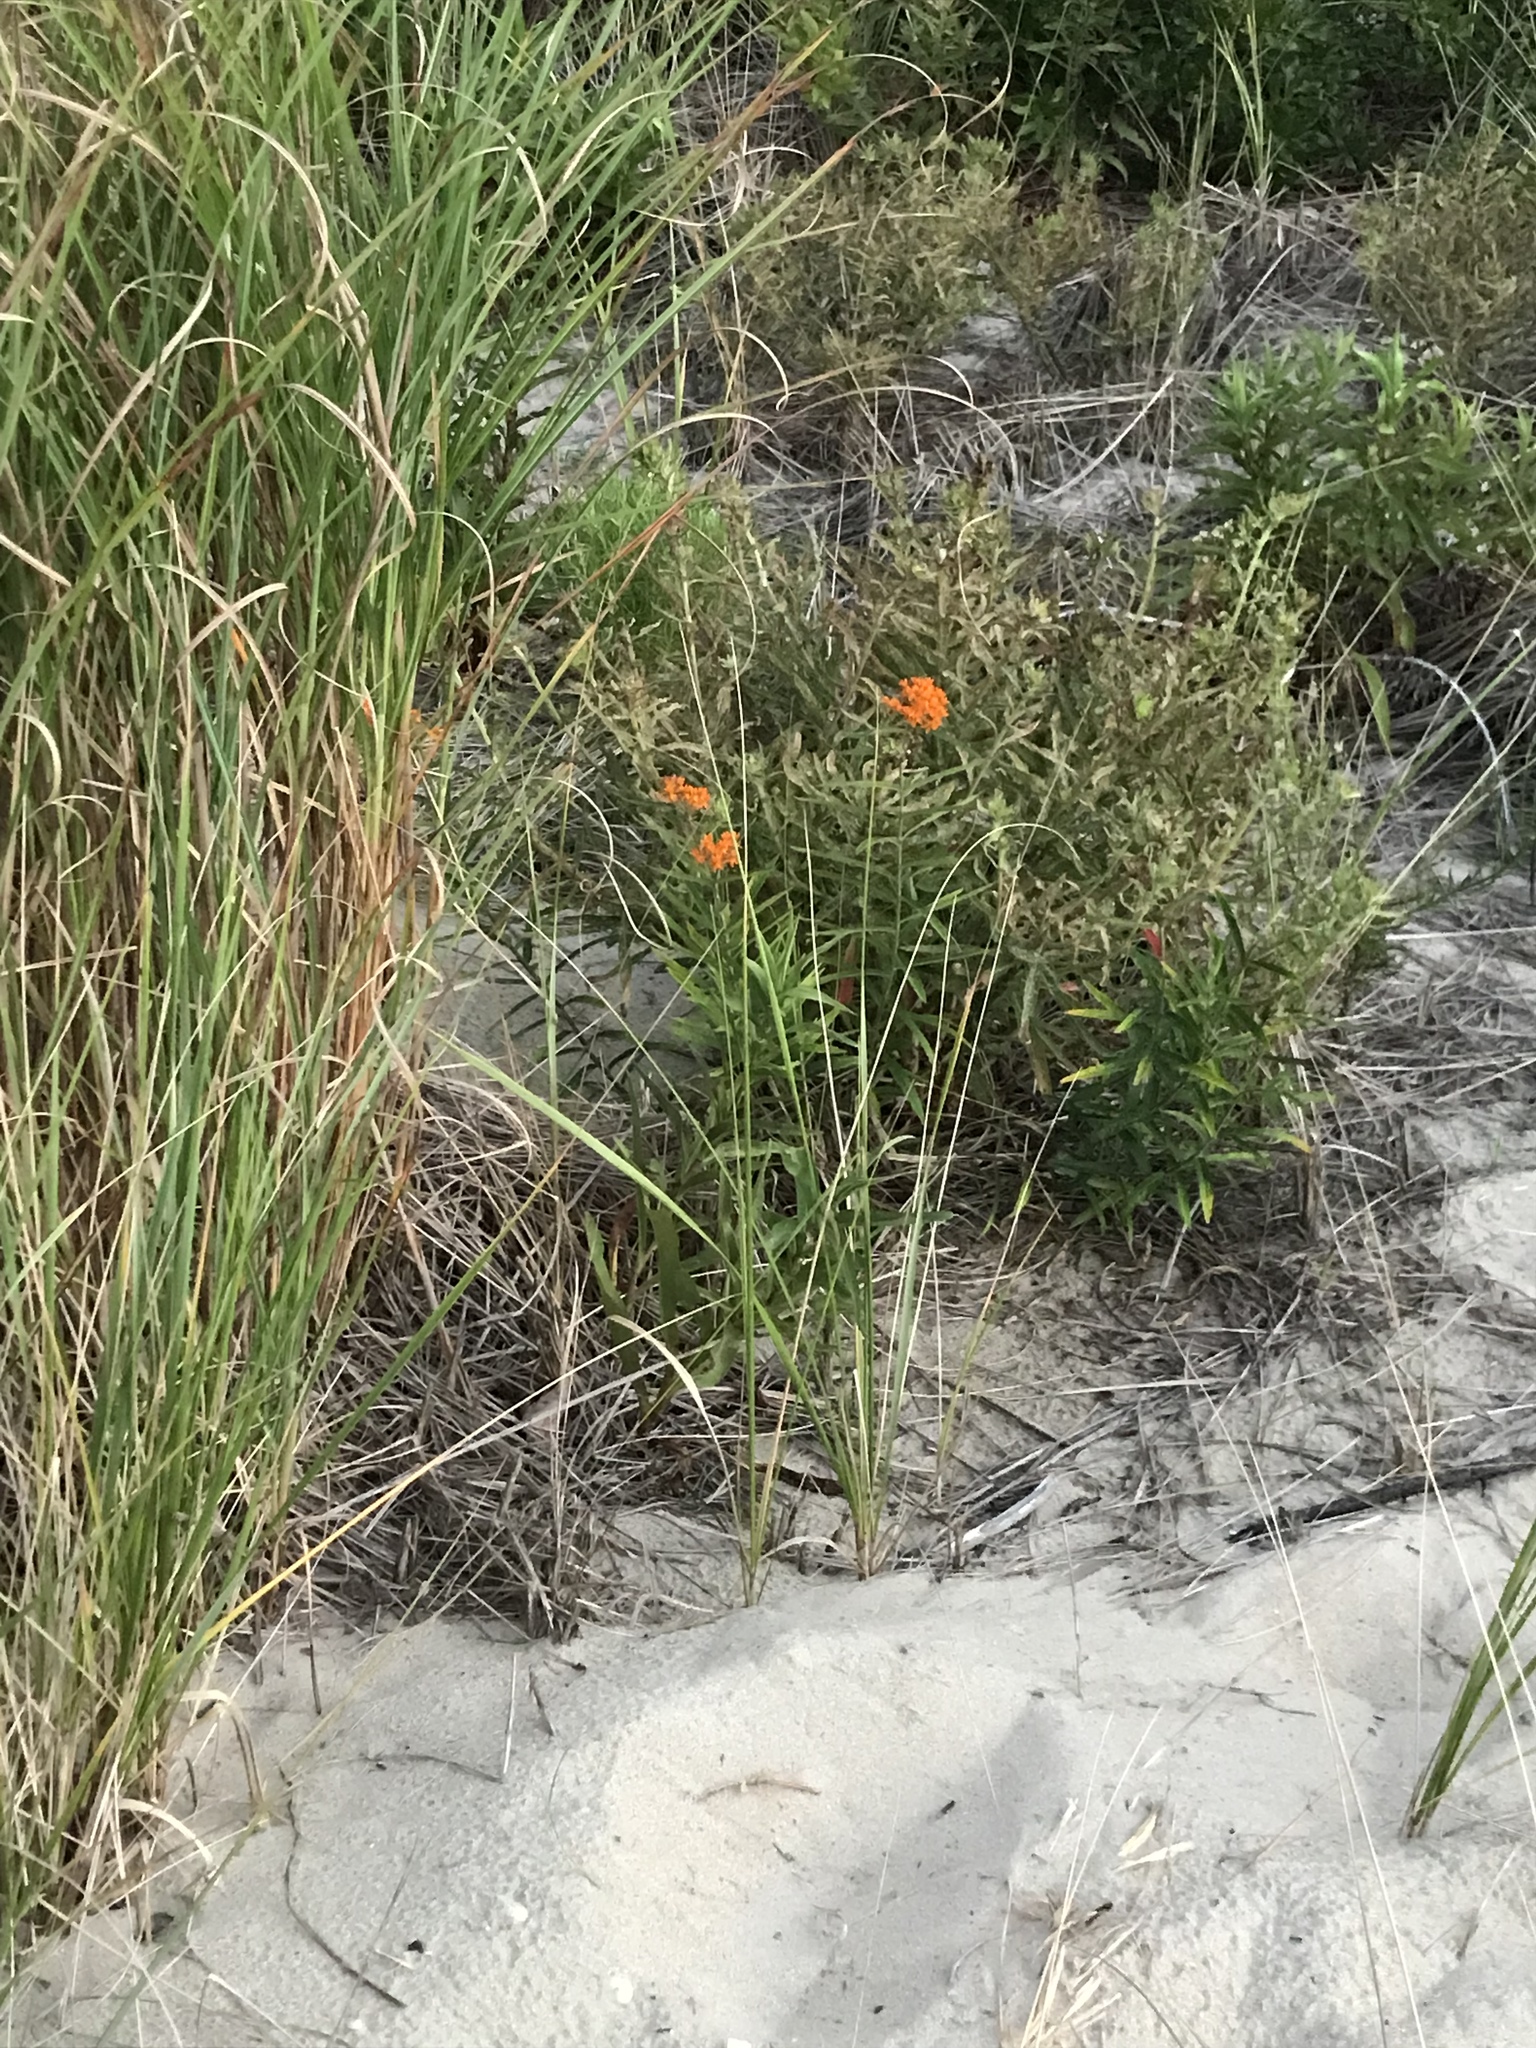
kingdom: Plantae
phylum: Tracheophyta
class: Magnoliopsida
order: Gentianales
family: Apocynaceae
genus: Asclepias
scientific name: Asclepias tuberosa
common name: Butterfly milkweed
